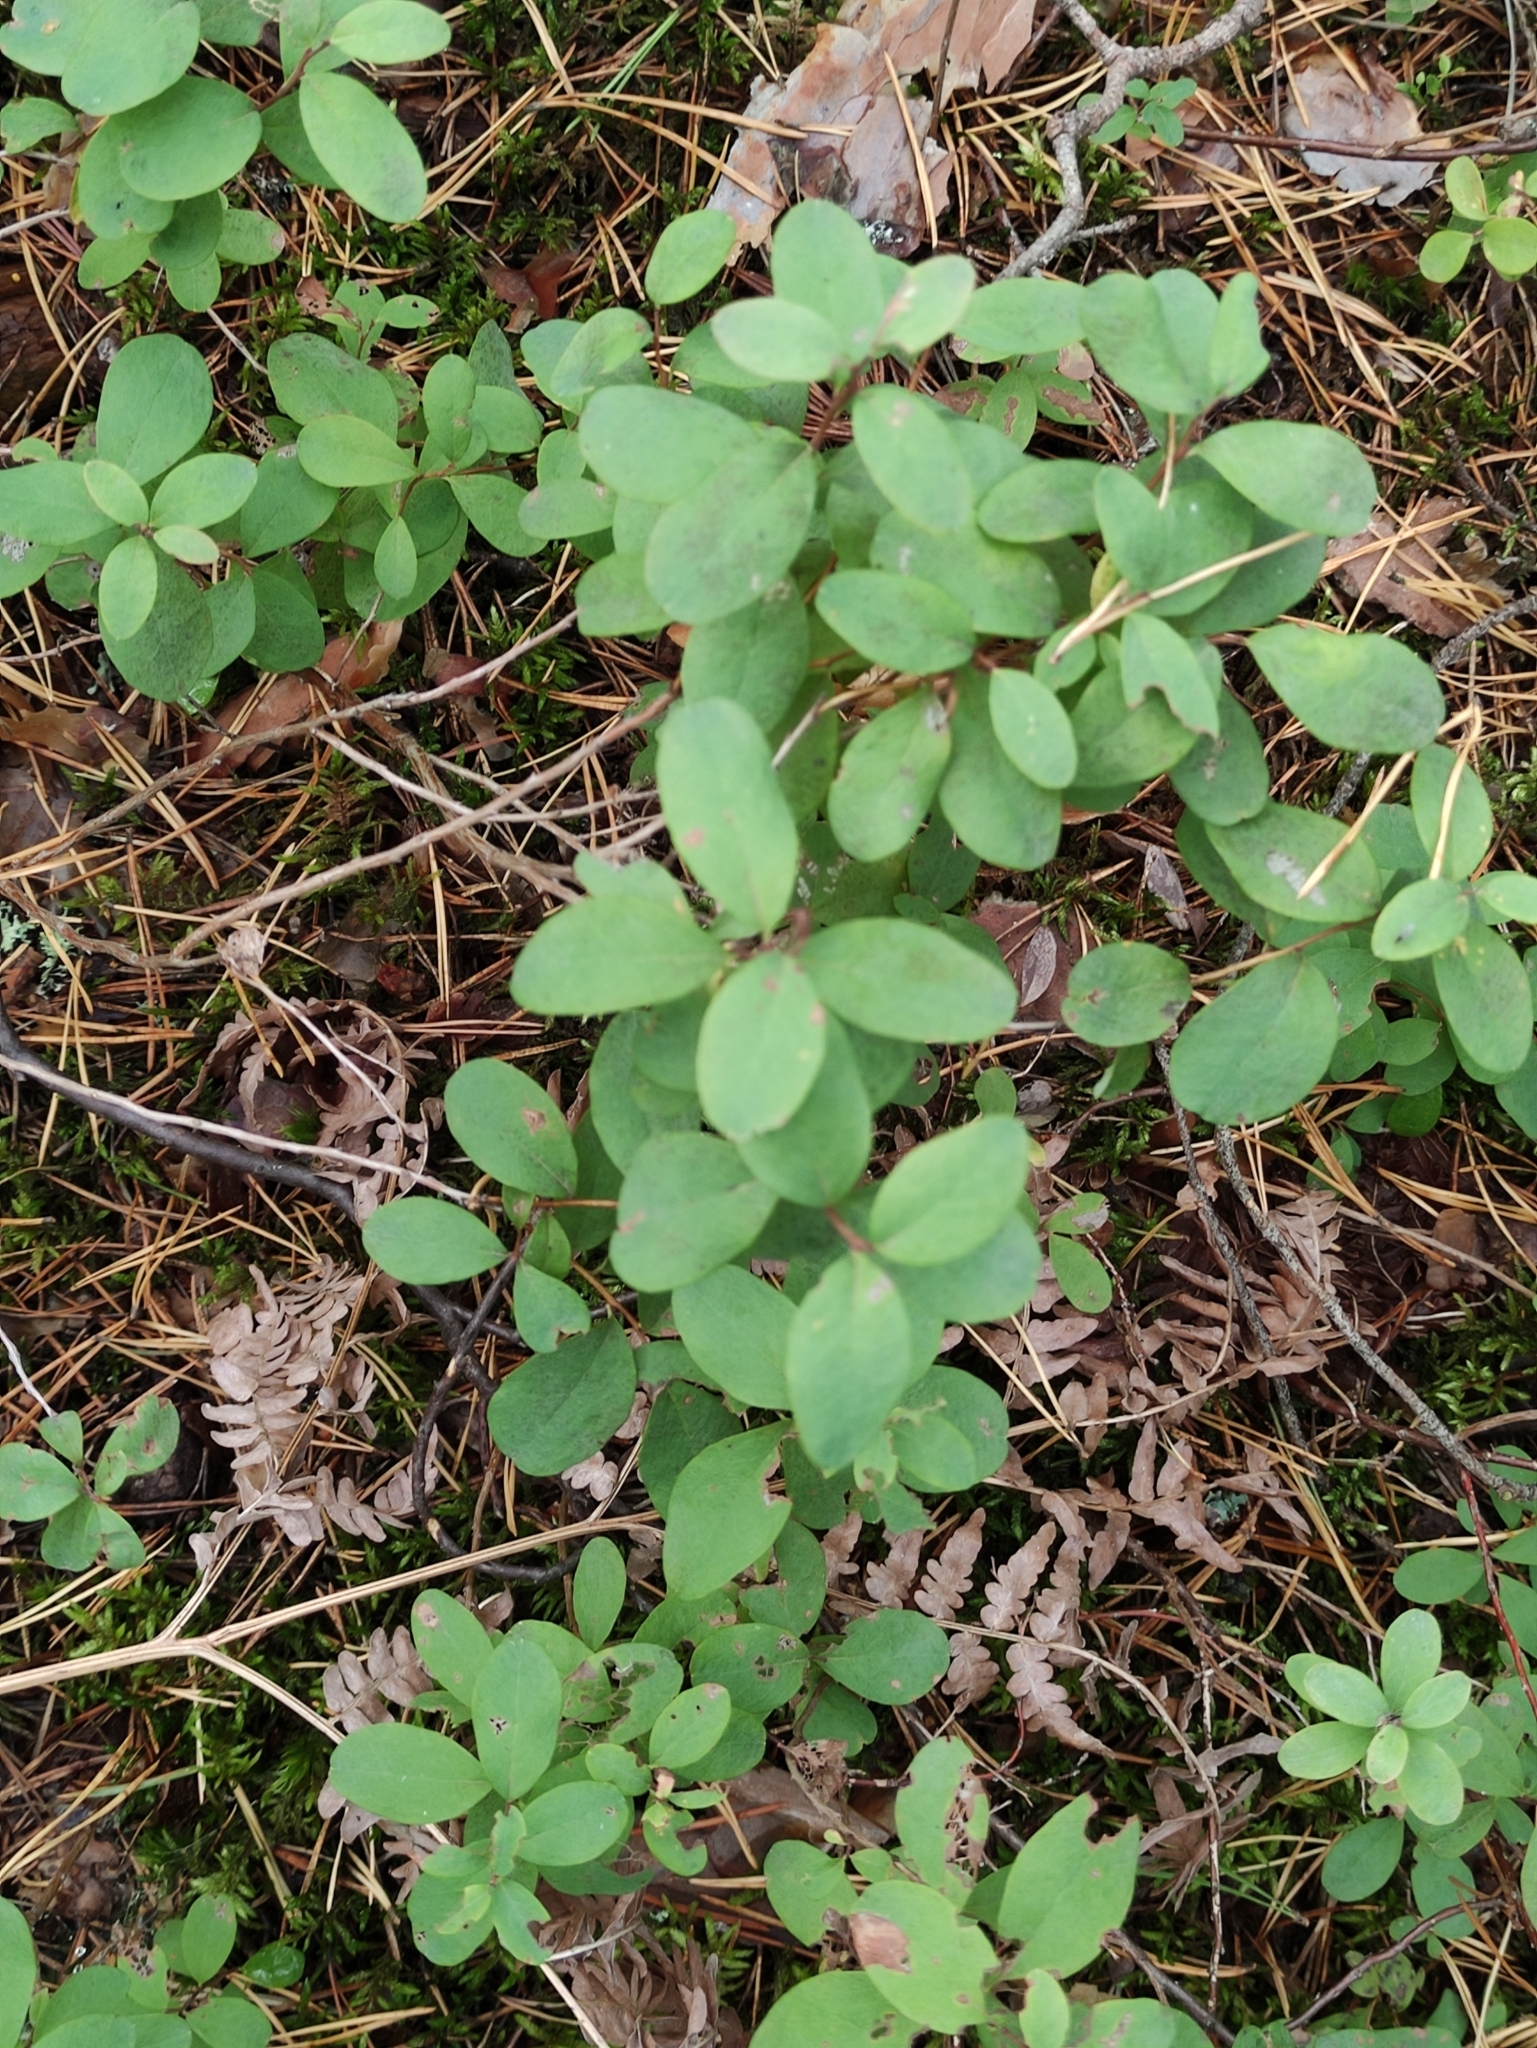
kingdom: Plantae
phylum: Tracheophyta
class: Magnoliopsida
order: Ericales
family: Ericaceae
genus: Vaccinium
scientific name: Vaccinium uliginosum
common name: Bog bilberry
